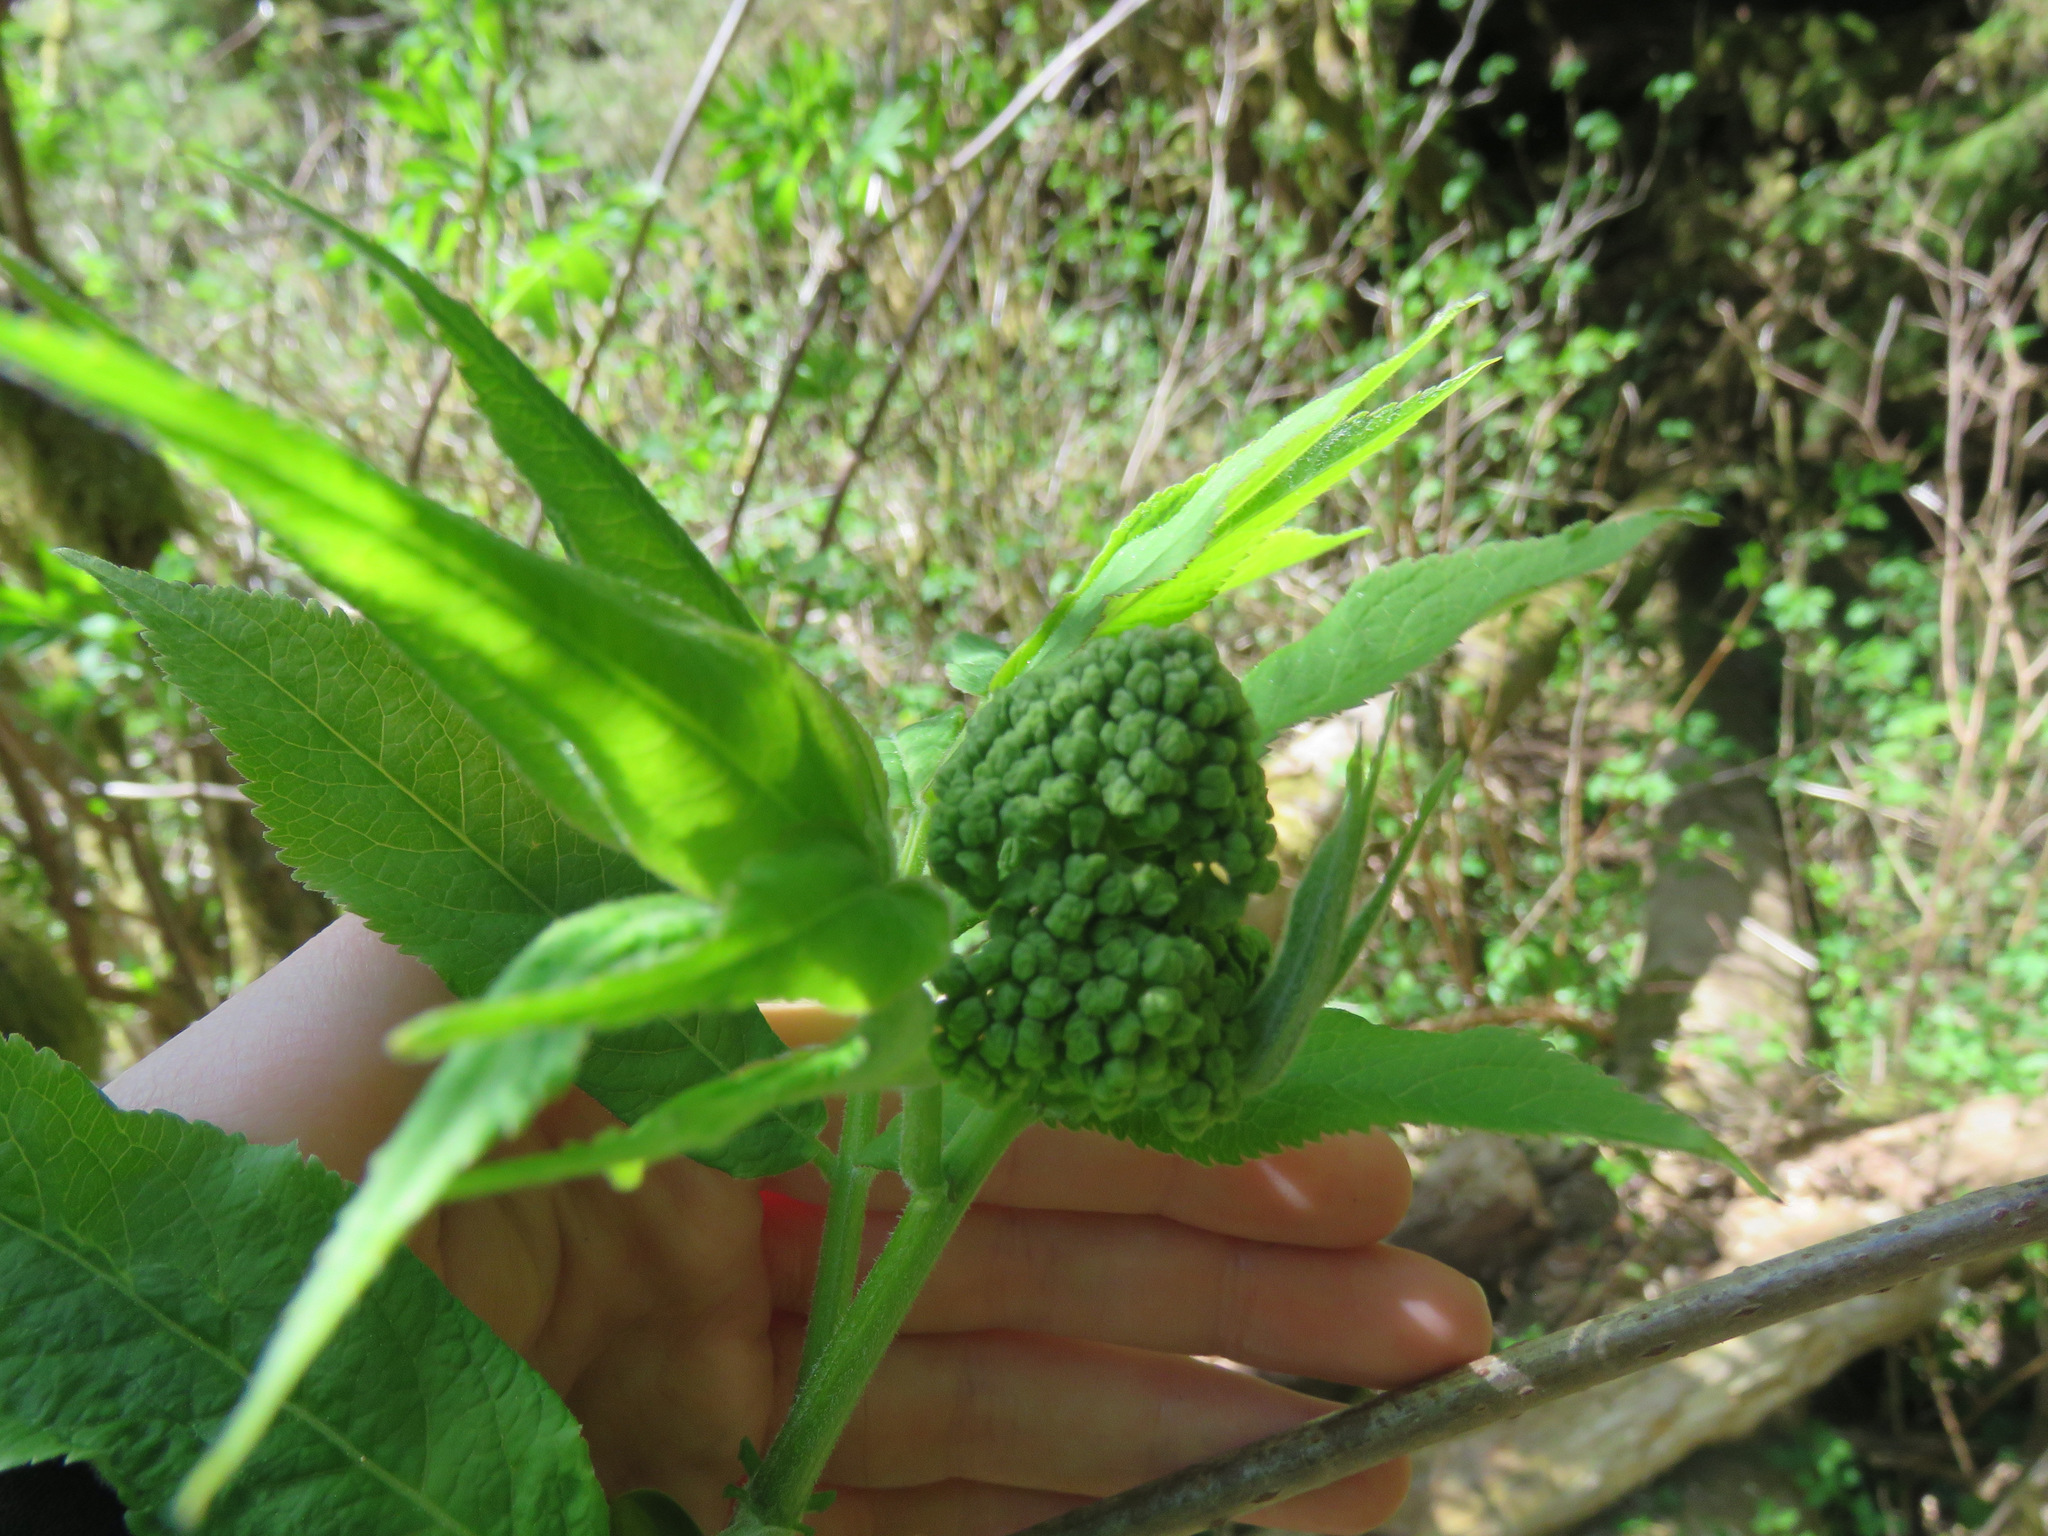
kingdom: Plantae
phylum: Tracheophyta
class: Magnoliopsida
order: Dipsacales
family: Viburnaceae
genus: Sambucus
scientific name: Sambucus racemosa
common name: Red-berried elder
